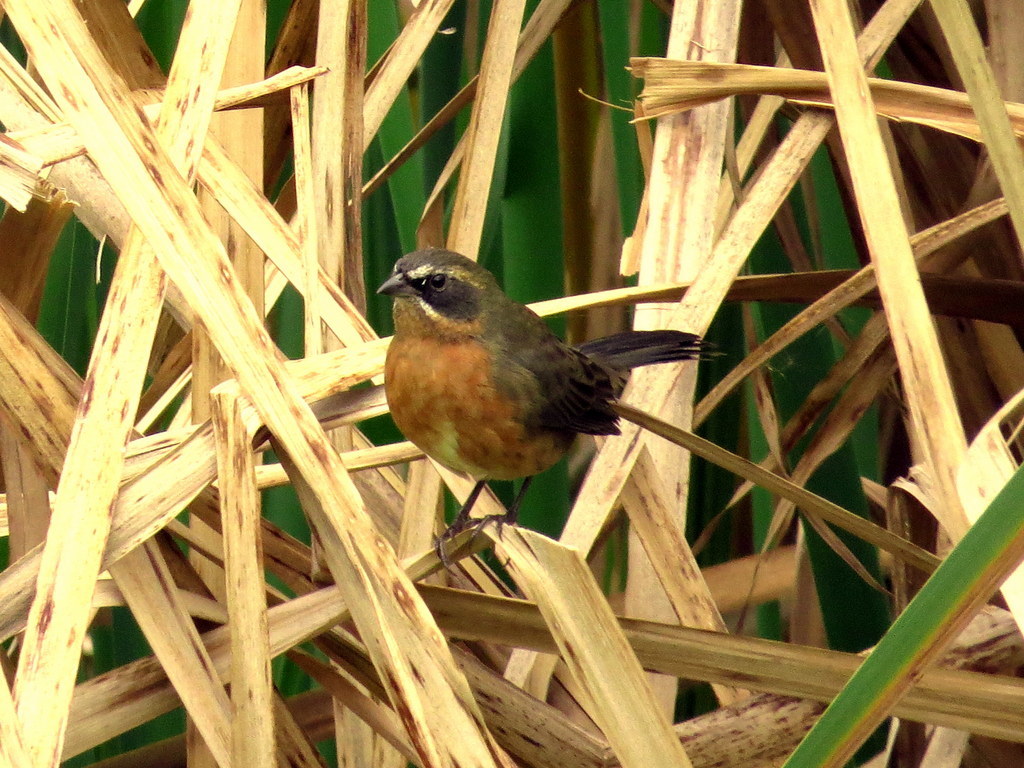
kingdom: Animalia
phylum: Chordata
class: Aves
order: Passeriformes
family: Thraupidae
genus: Poospiza
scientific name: Poospiza nigrorufa
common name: Black-and-rufous warbling finch
